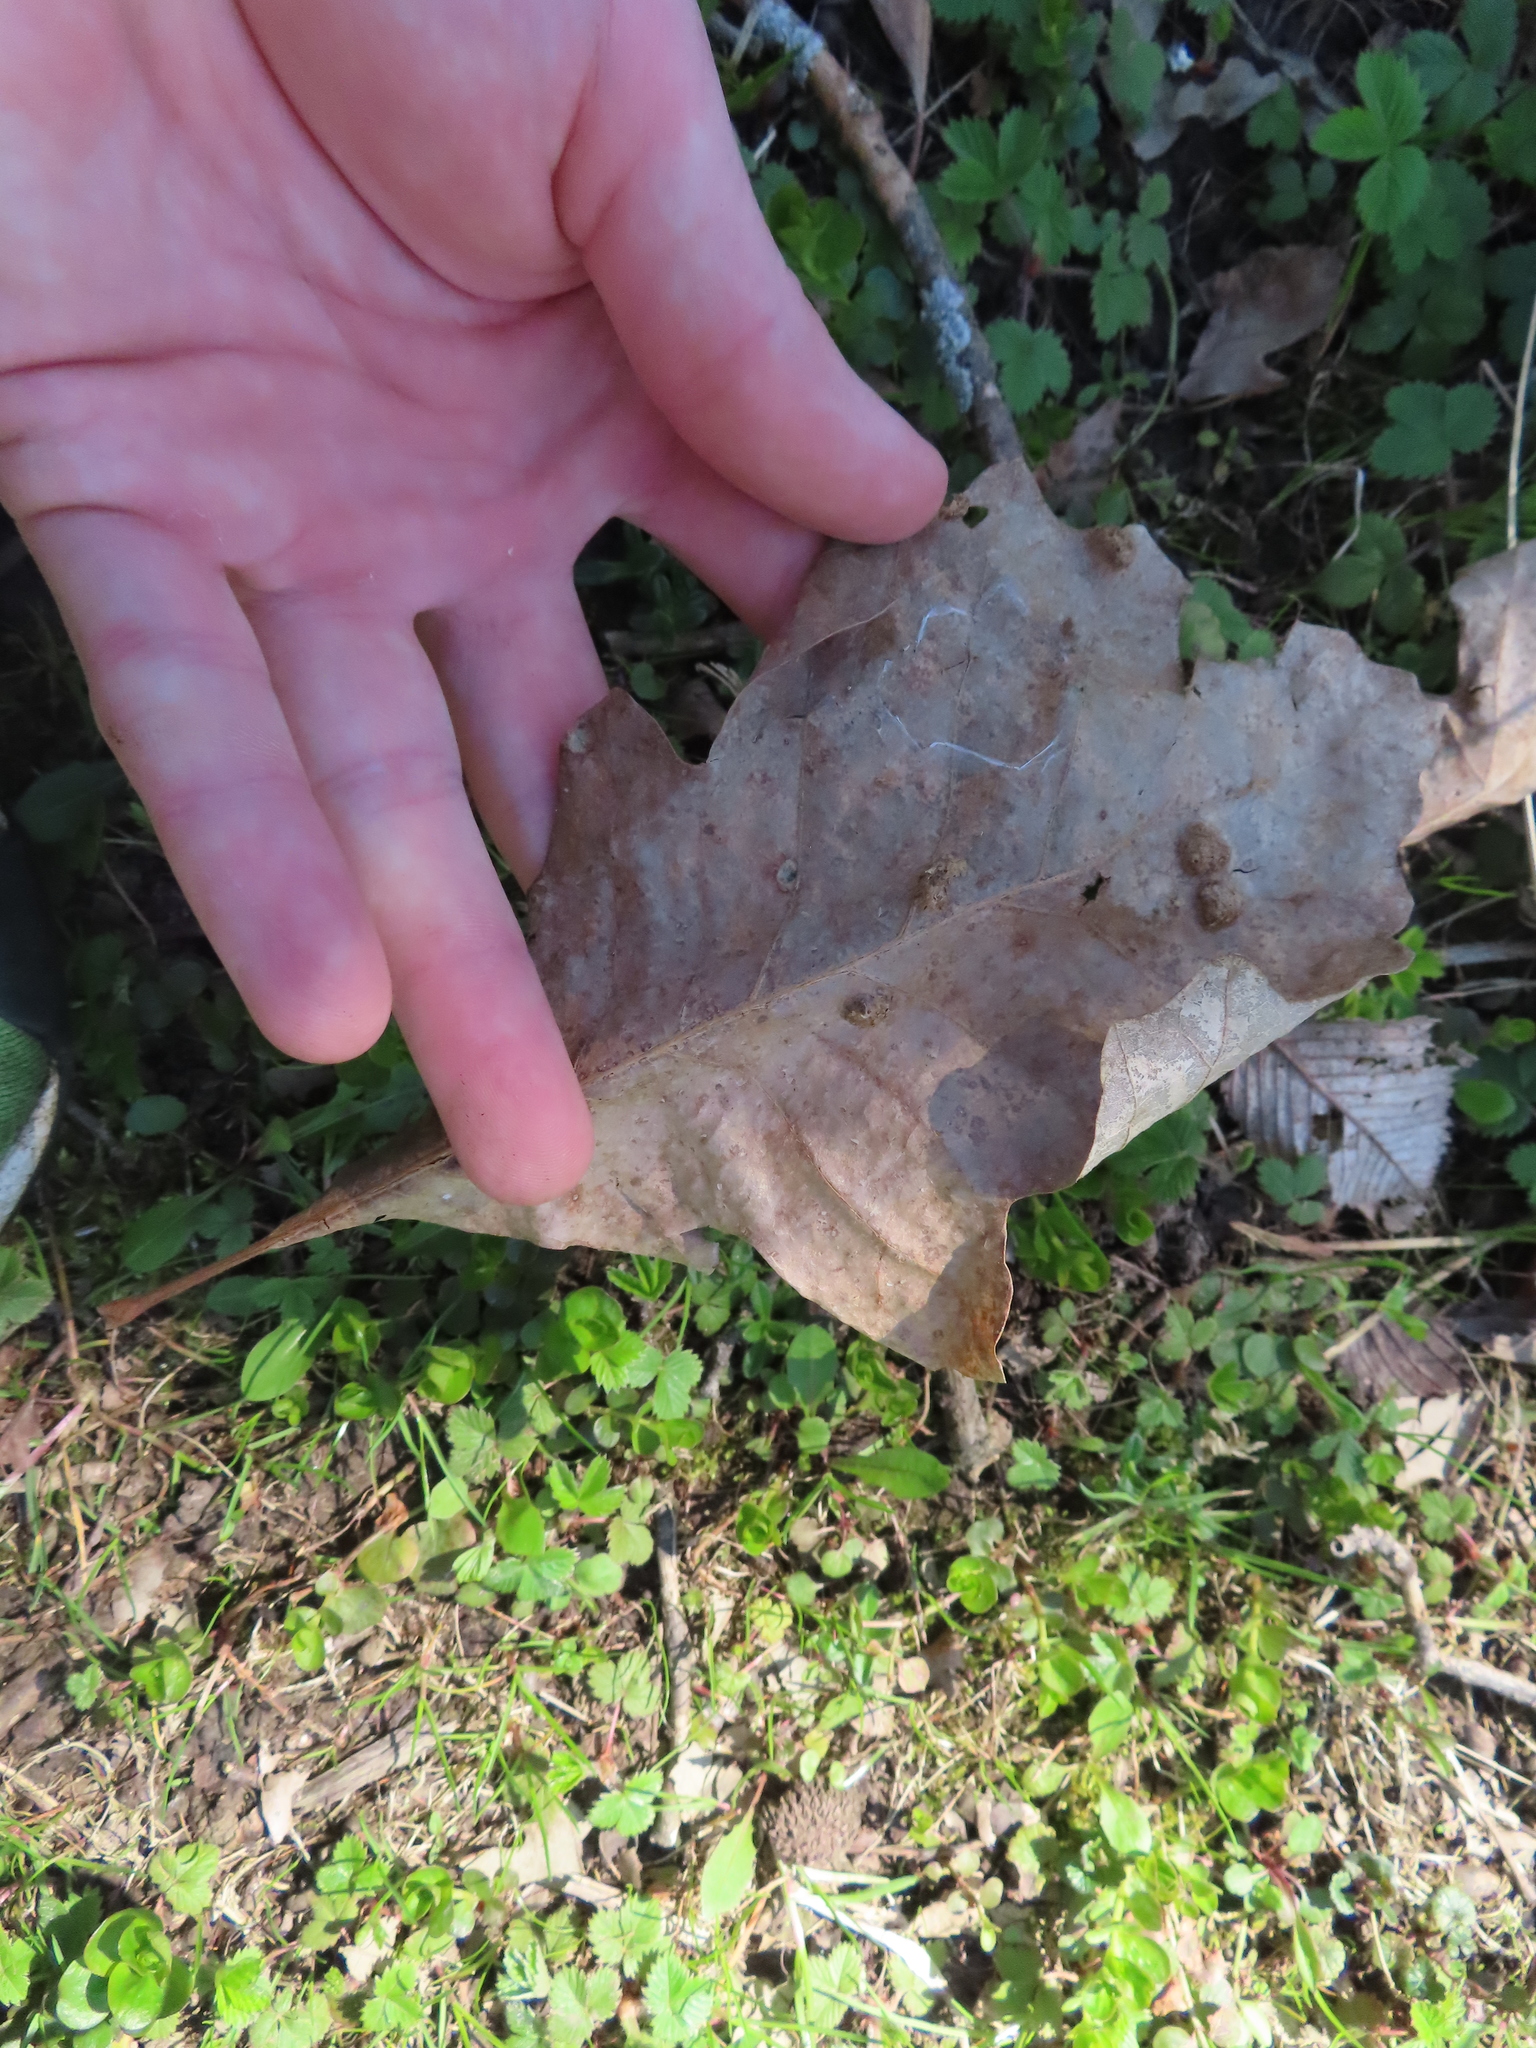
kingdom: Animalia
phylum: Arthropoda
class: Arachnida
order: Trombidiformes
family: Eriophyidae
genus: Aceria
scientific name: Aceria quercina
